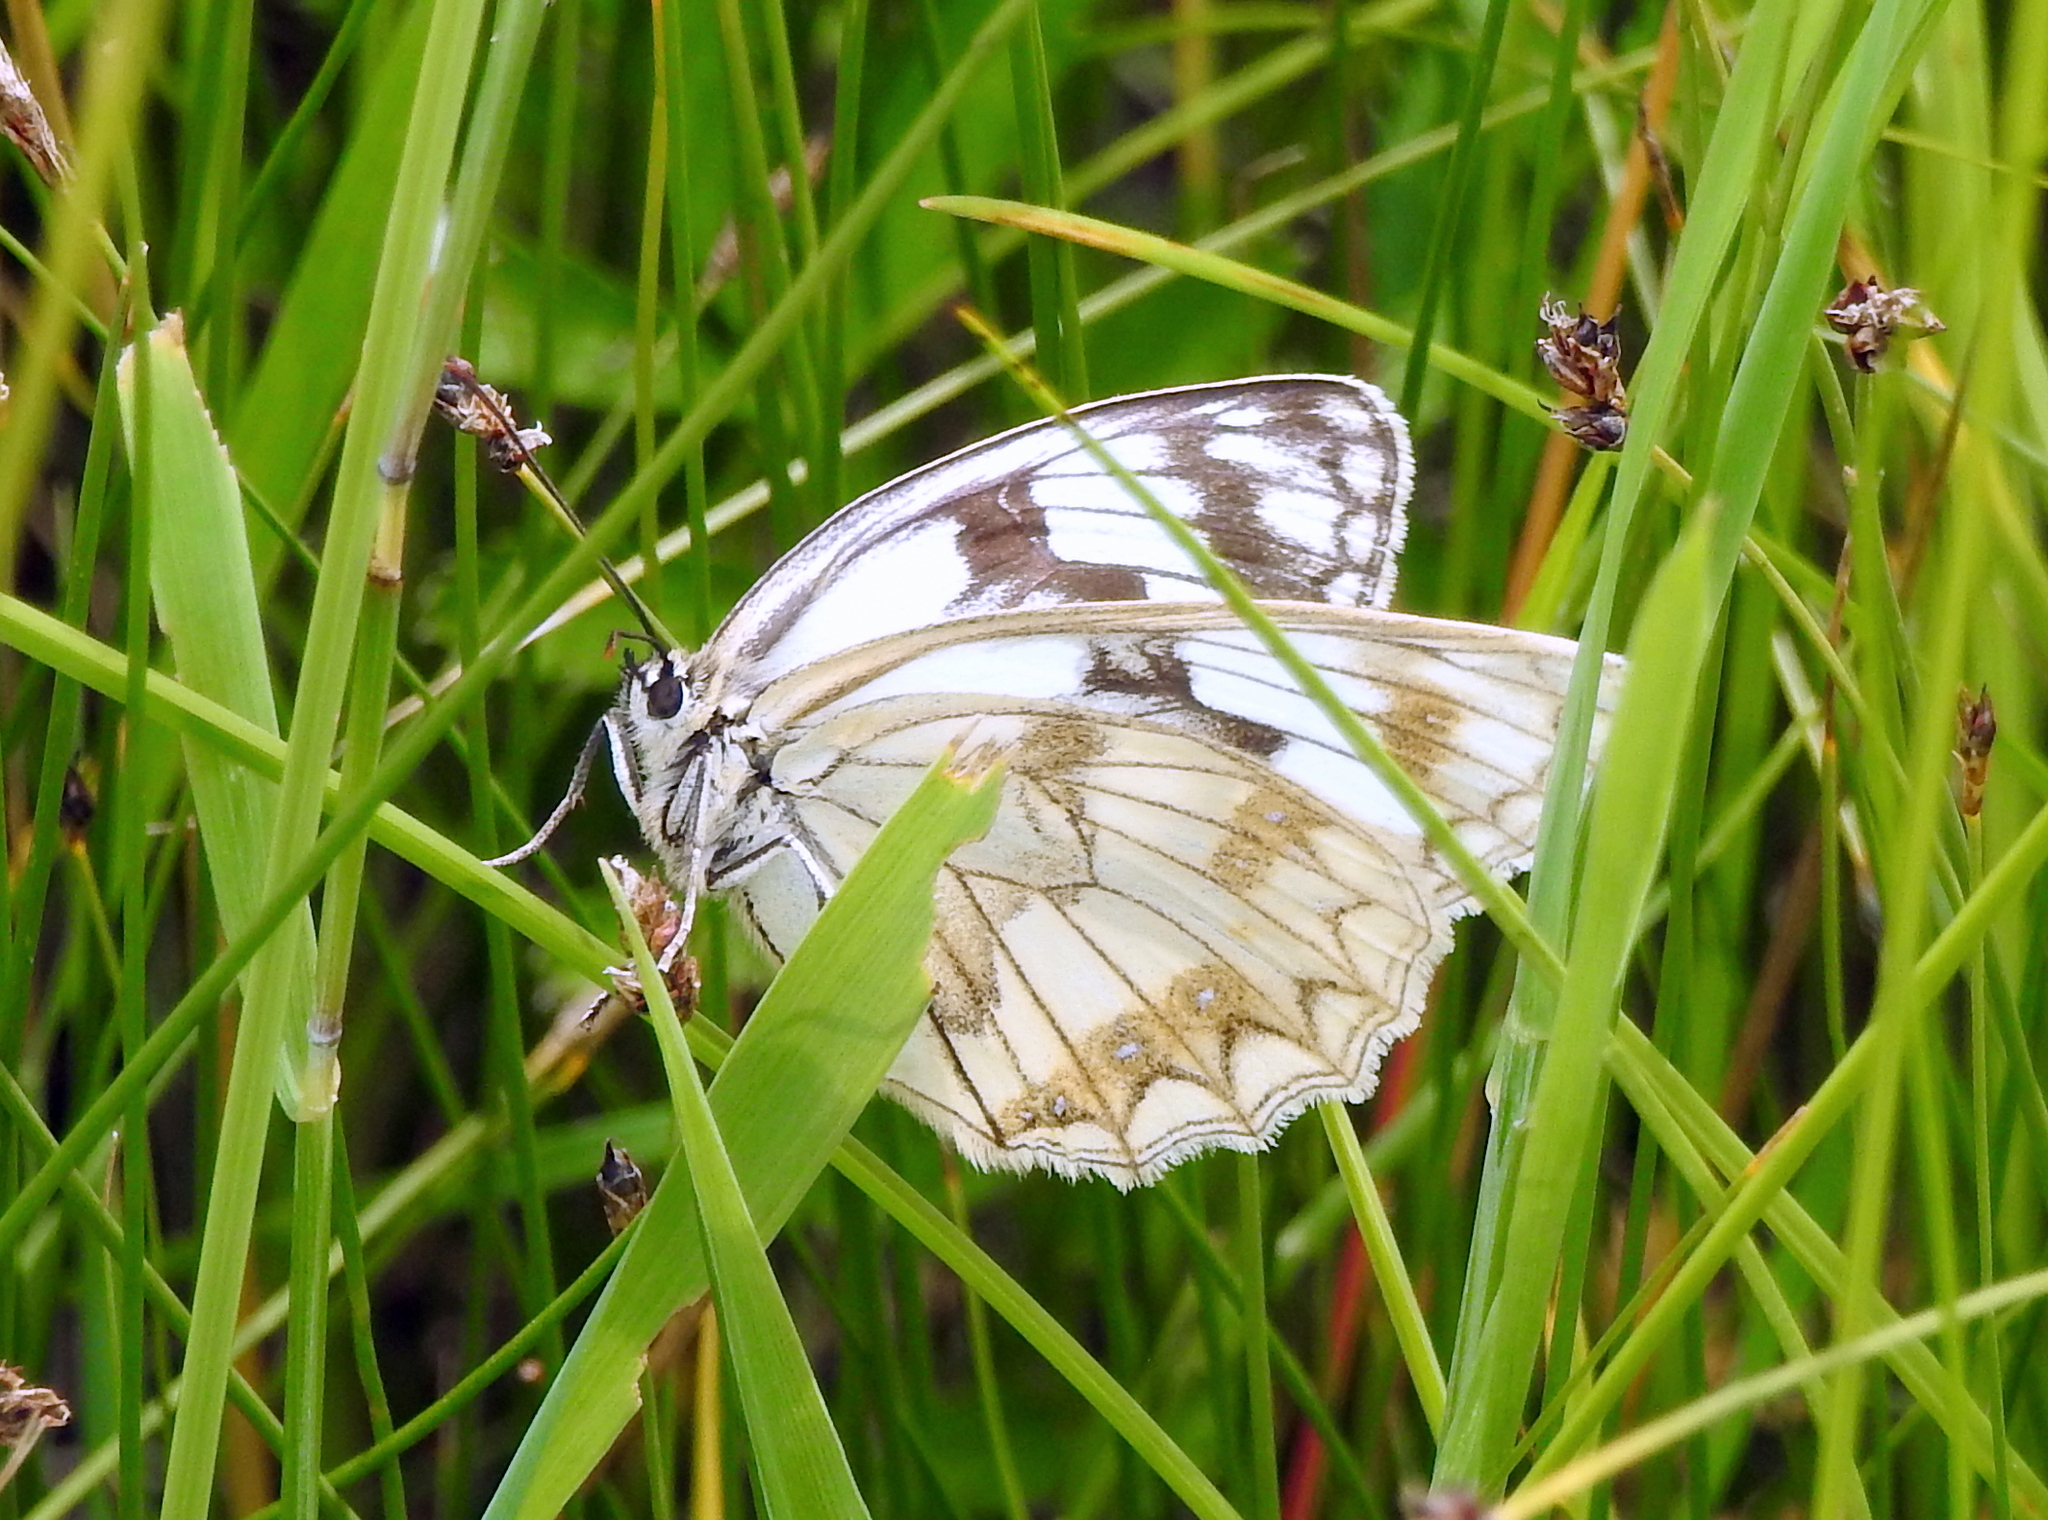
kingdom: Animalia
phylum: Arthropoda
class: Insecta
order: Lepidoptera
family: Nymphalidae
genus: Melanargia
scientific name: Melanargia halimede
